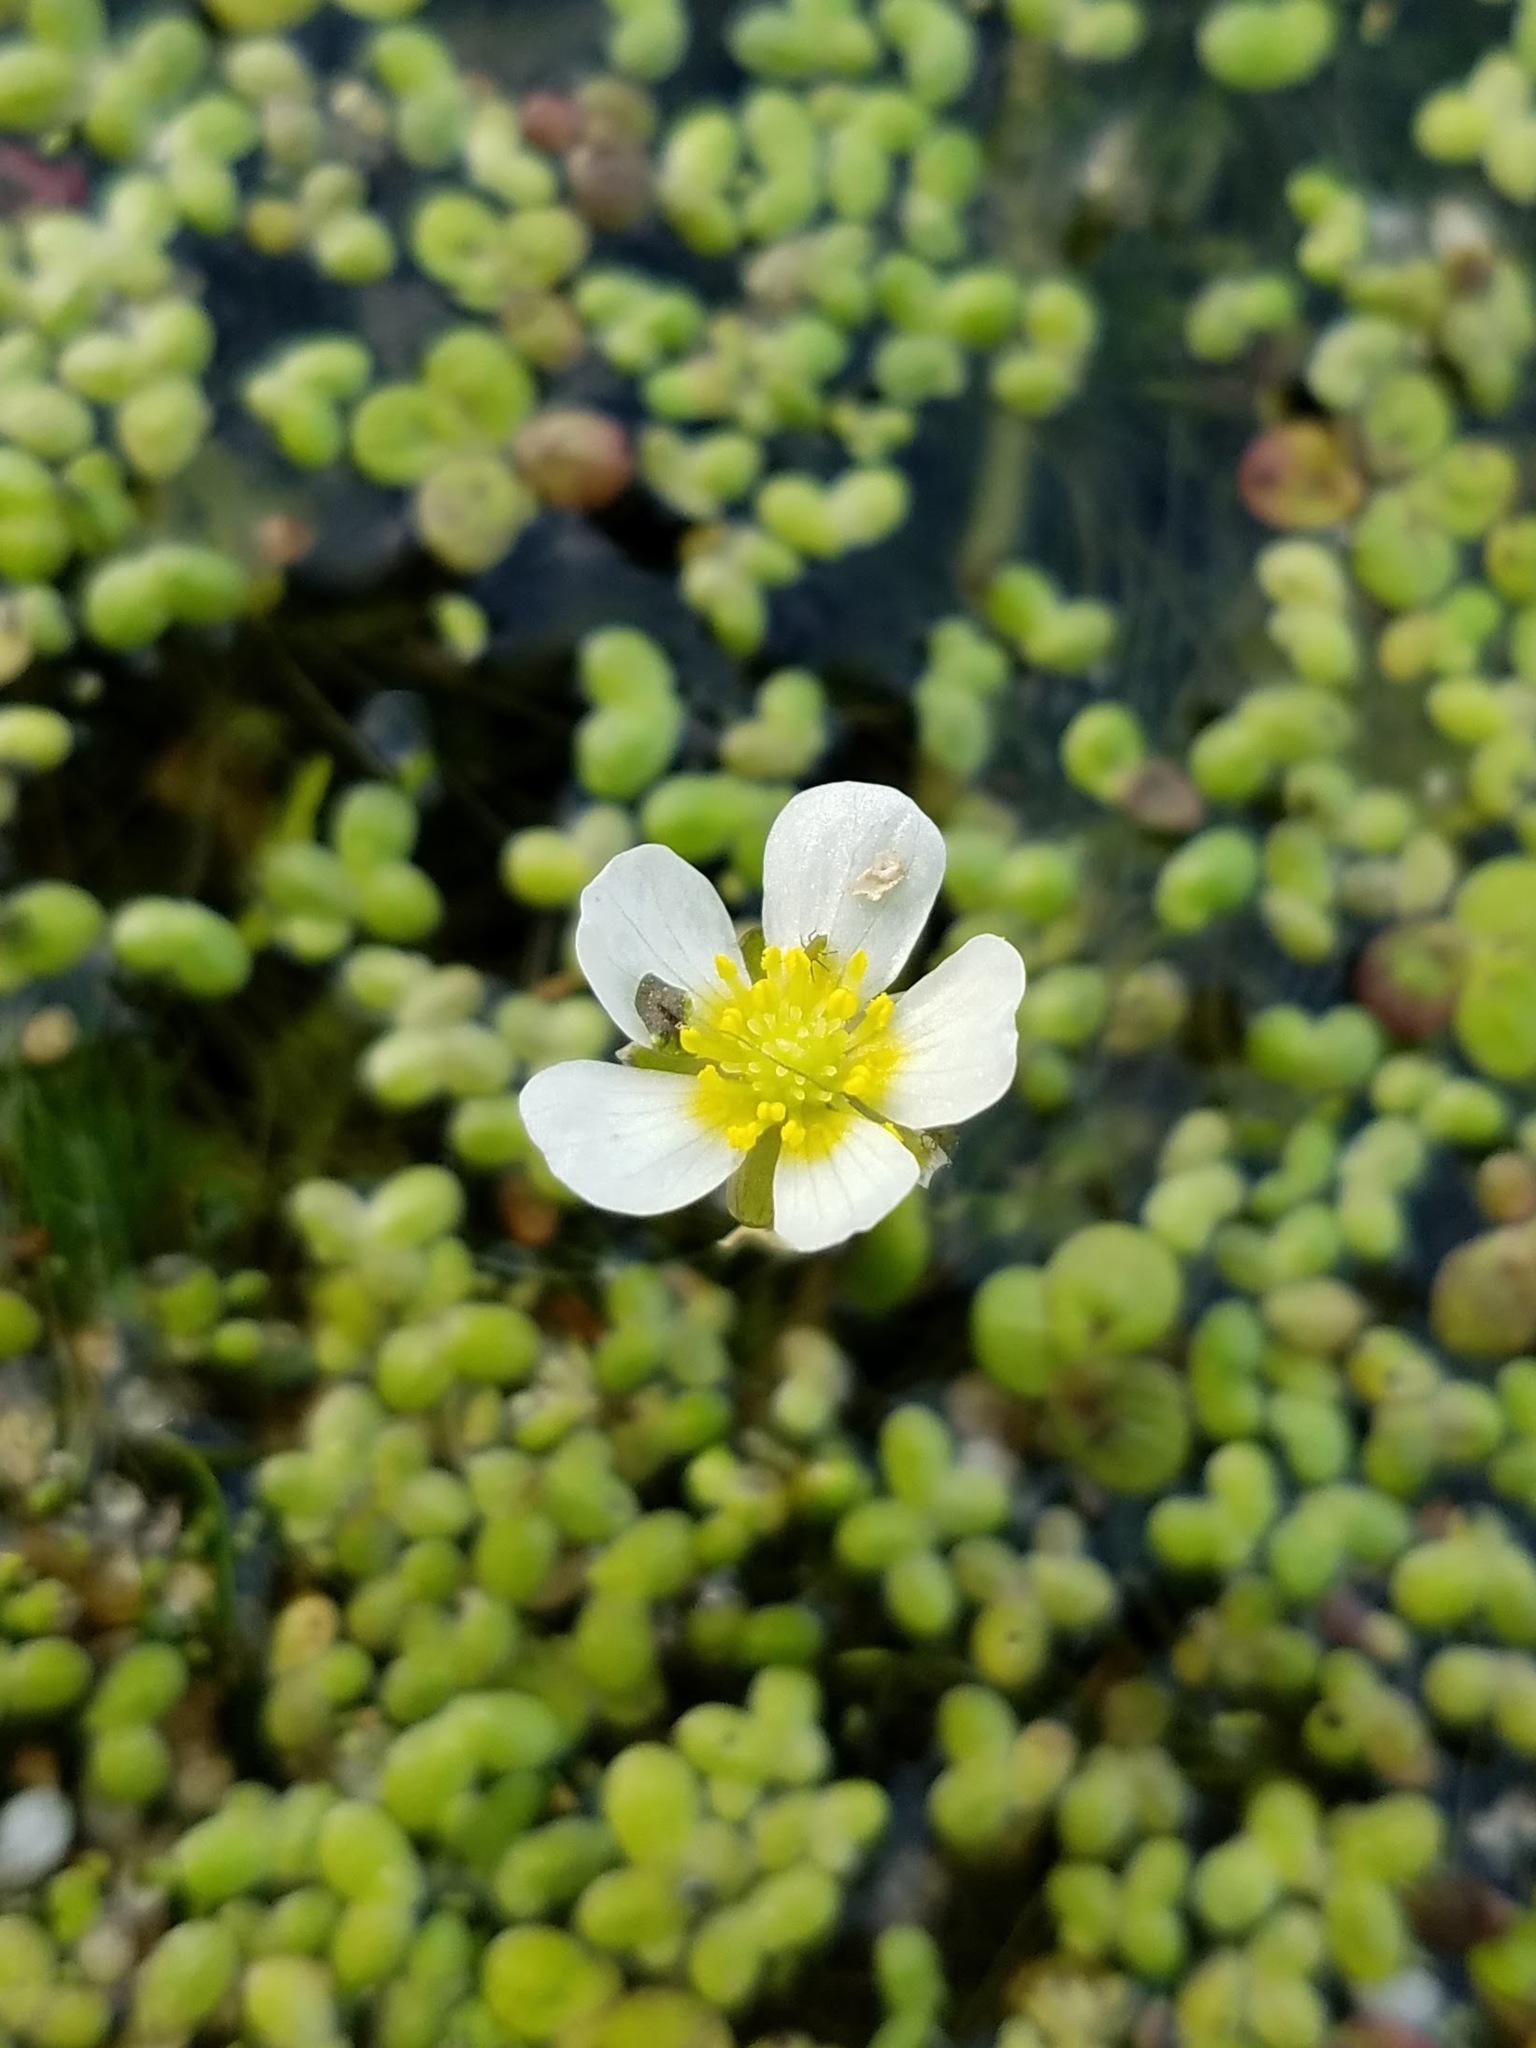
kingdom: Plantae
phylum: Tracheophyta
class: Magnoliopsida
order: Ranunculales
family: Ranunculaceae
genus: Ranunculus
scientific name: Ranunculus aquatilis
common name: Common water-crowfoot
